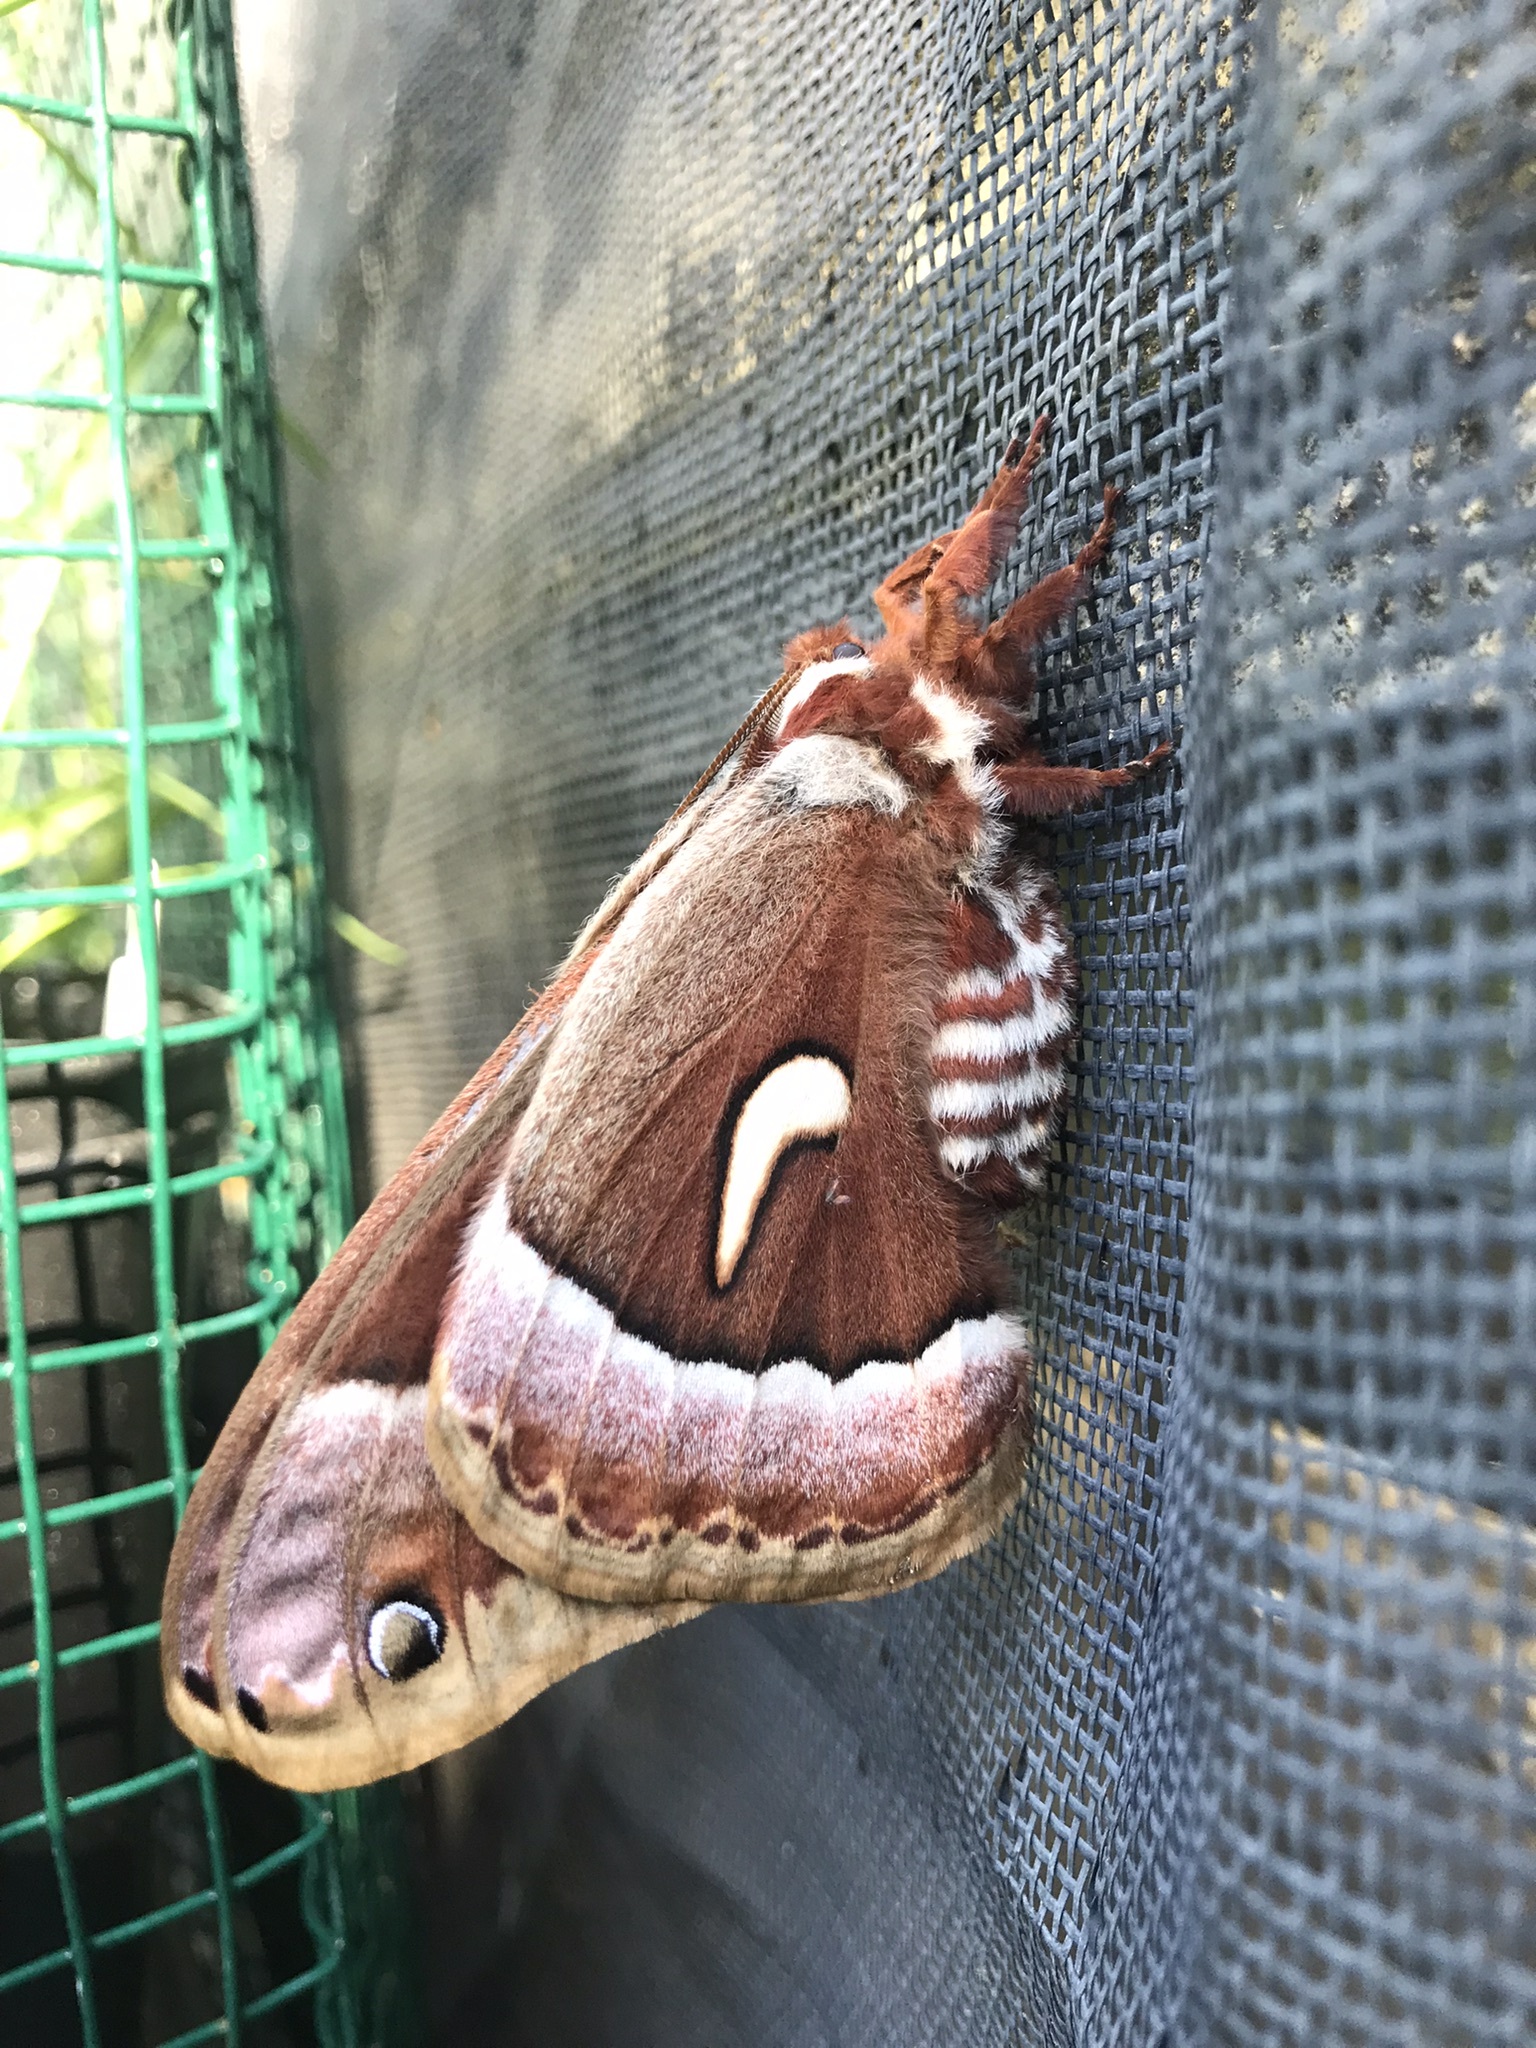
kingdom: Animalia
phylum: Arthropoda
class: Insecta
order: Lepidoptera
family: Saturniidae
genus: Hyalophora
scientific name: Hyalophora euryalus
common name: Ceanothus silkmoth
